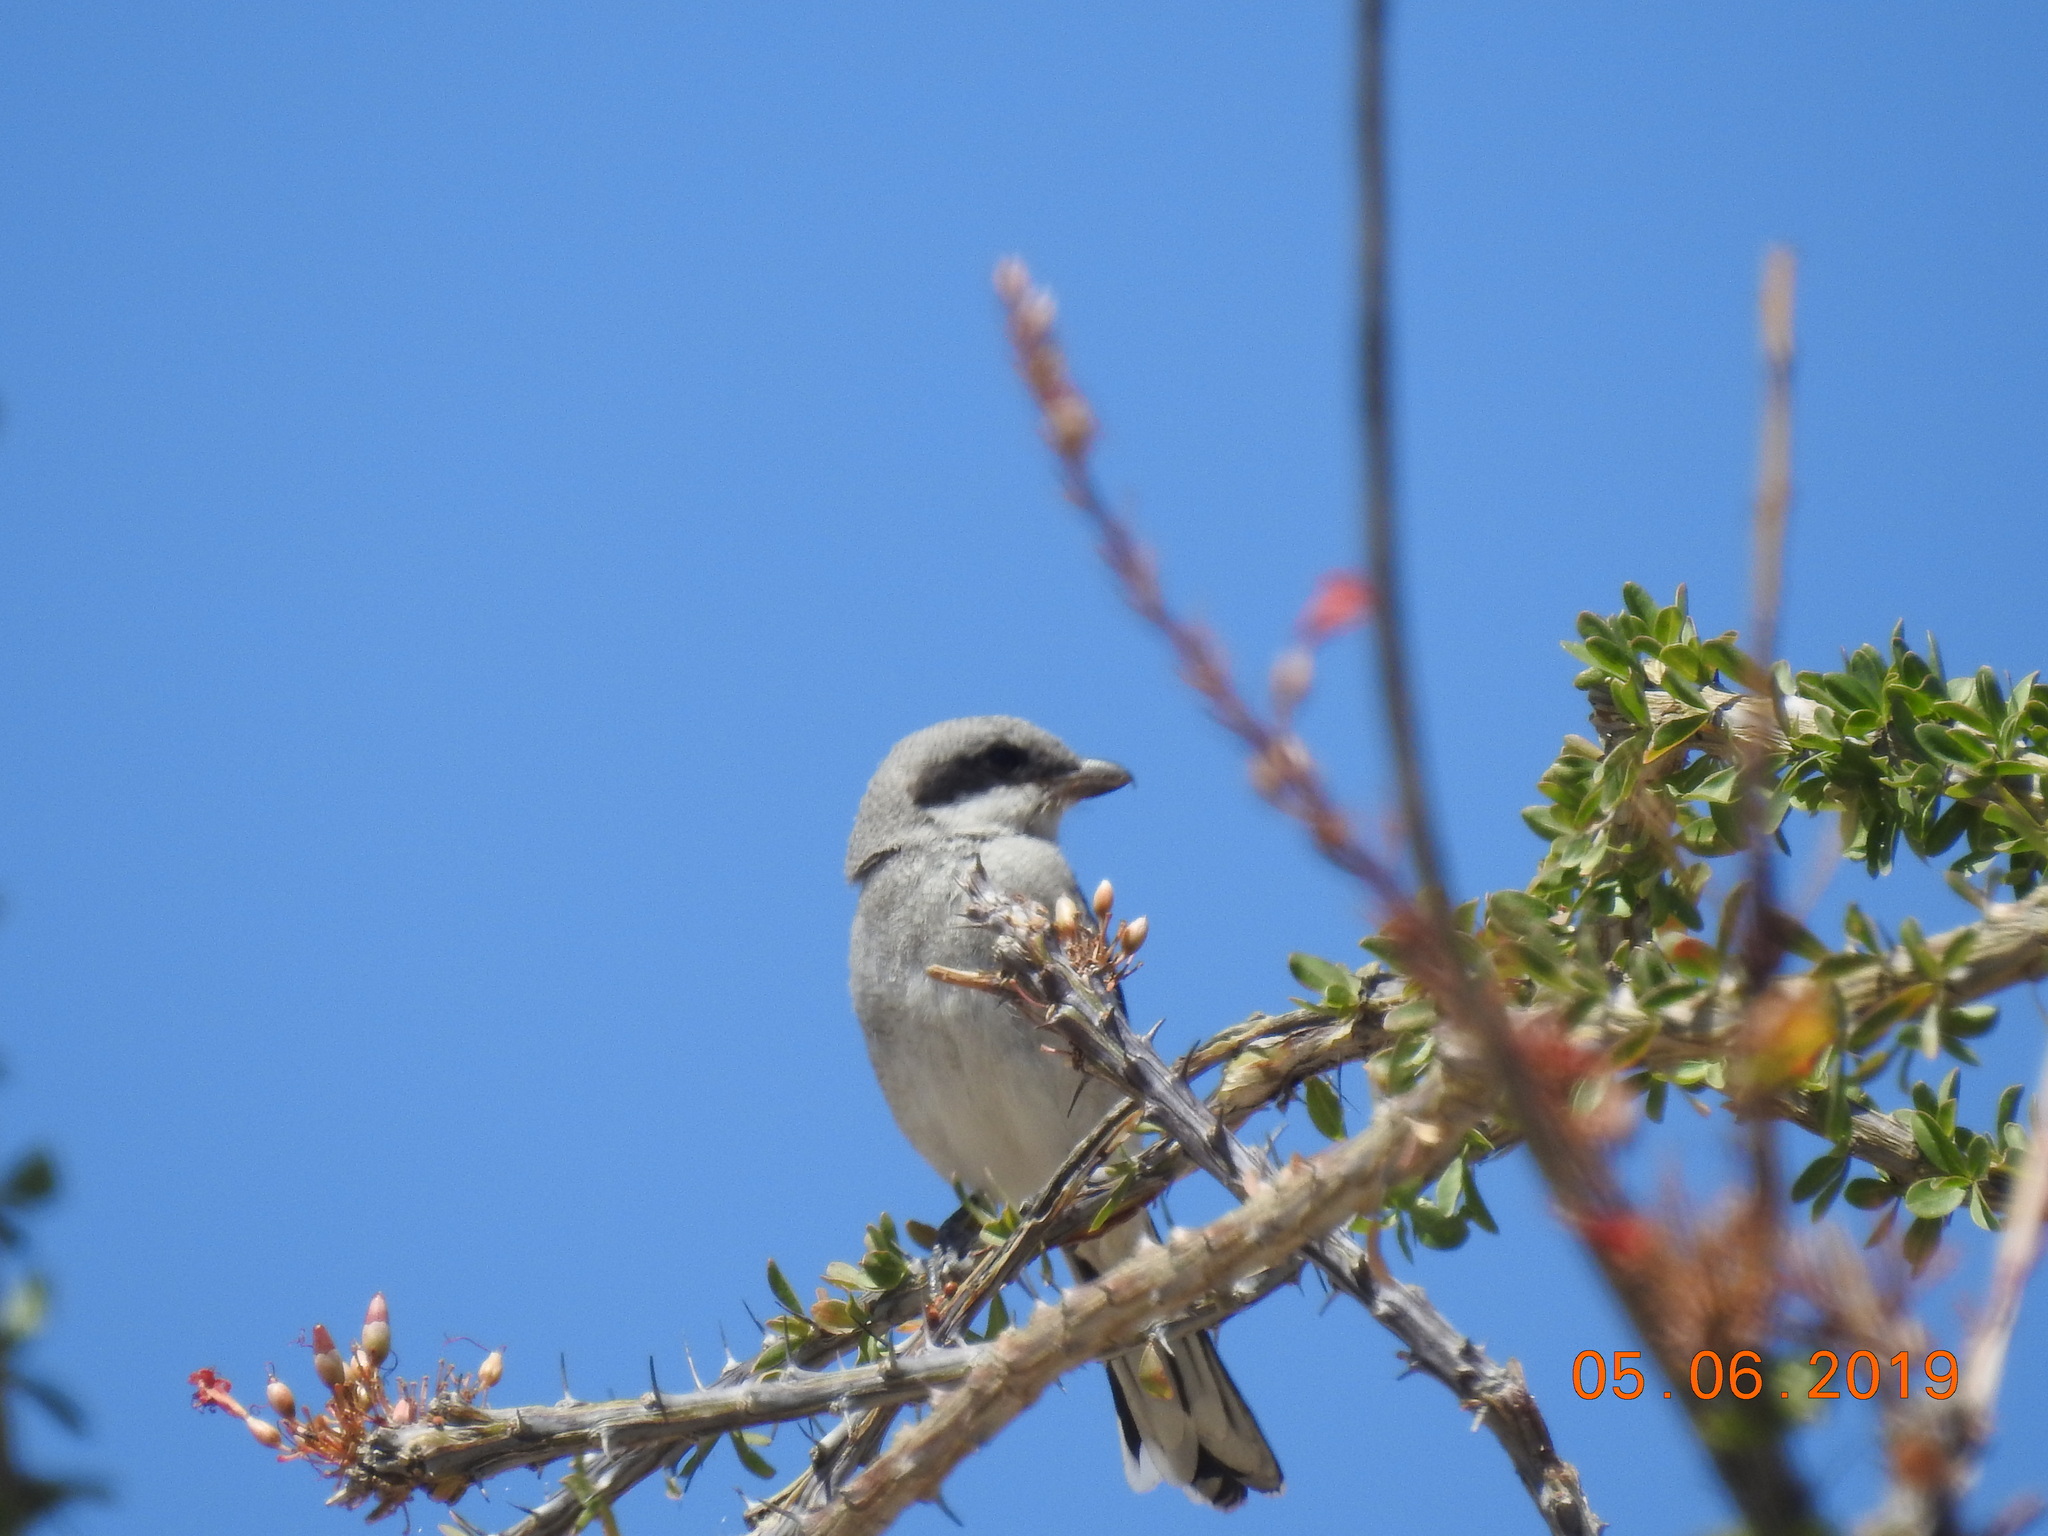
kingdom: Animalia
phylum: Chordata
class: Aves
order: Passeriformes
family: Laniidae
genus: Lanius
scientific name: Lanius ludovicianus
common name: Loggerhead shrike
